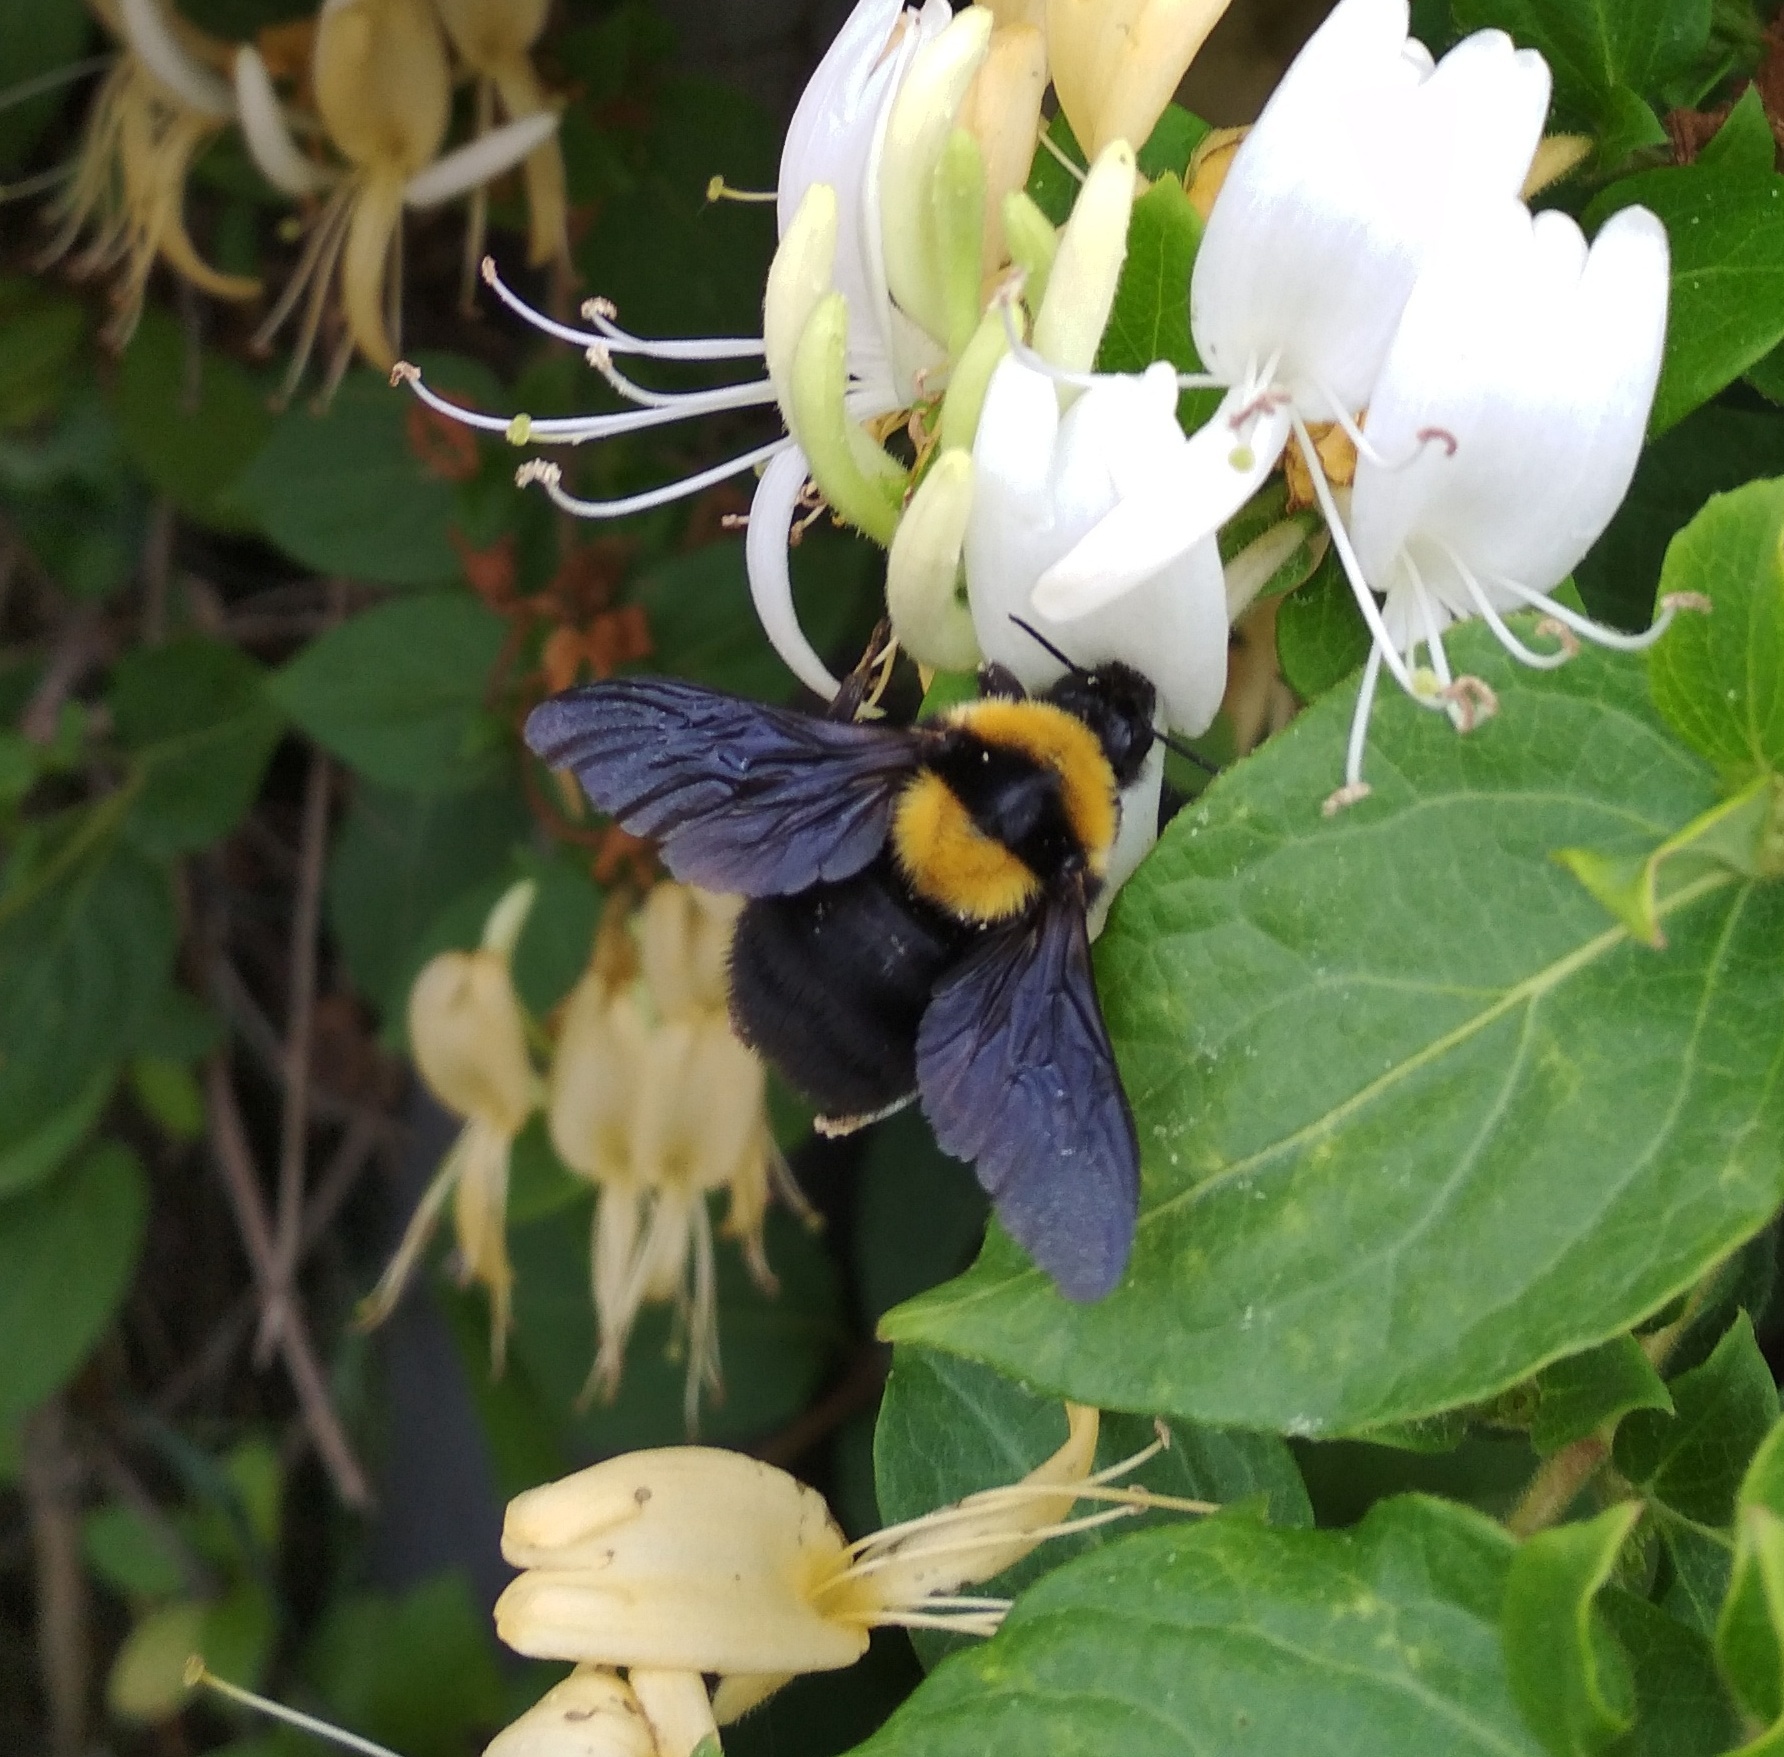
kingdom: Animalia
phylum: Arthropoda
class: Insecta
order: Hymenoptera
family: Apidae
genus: Bombus
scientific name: Bombus argillaceus
